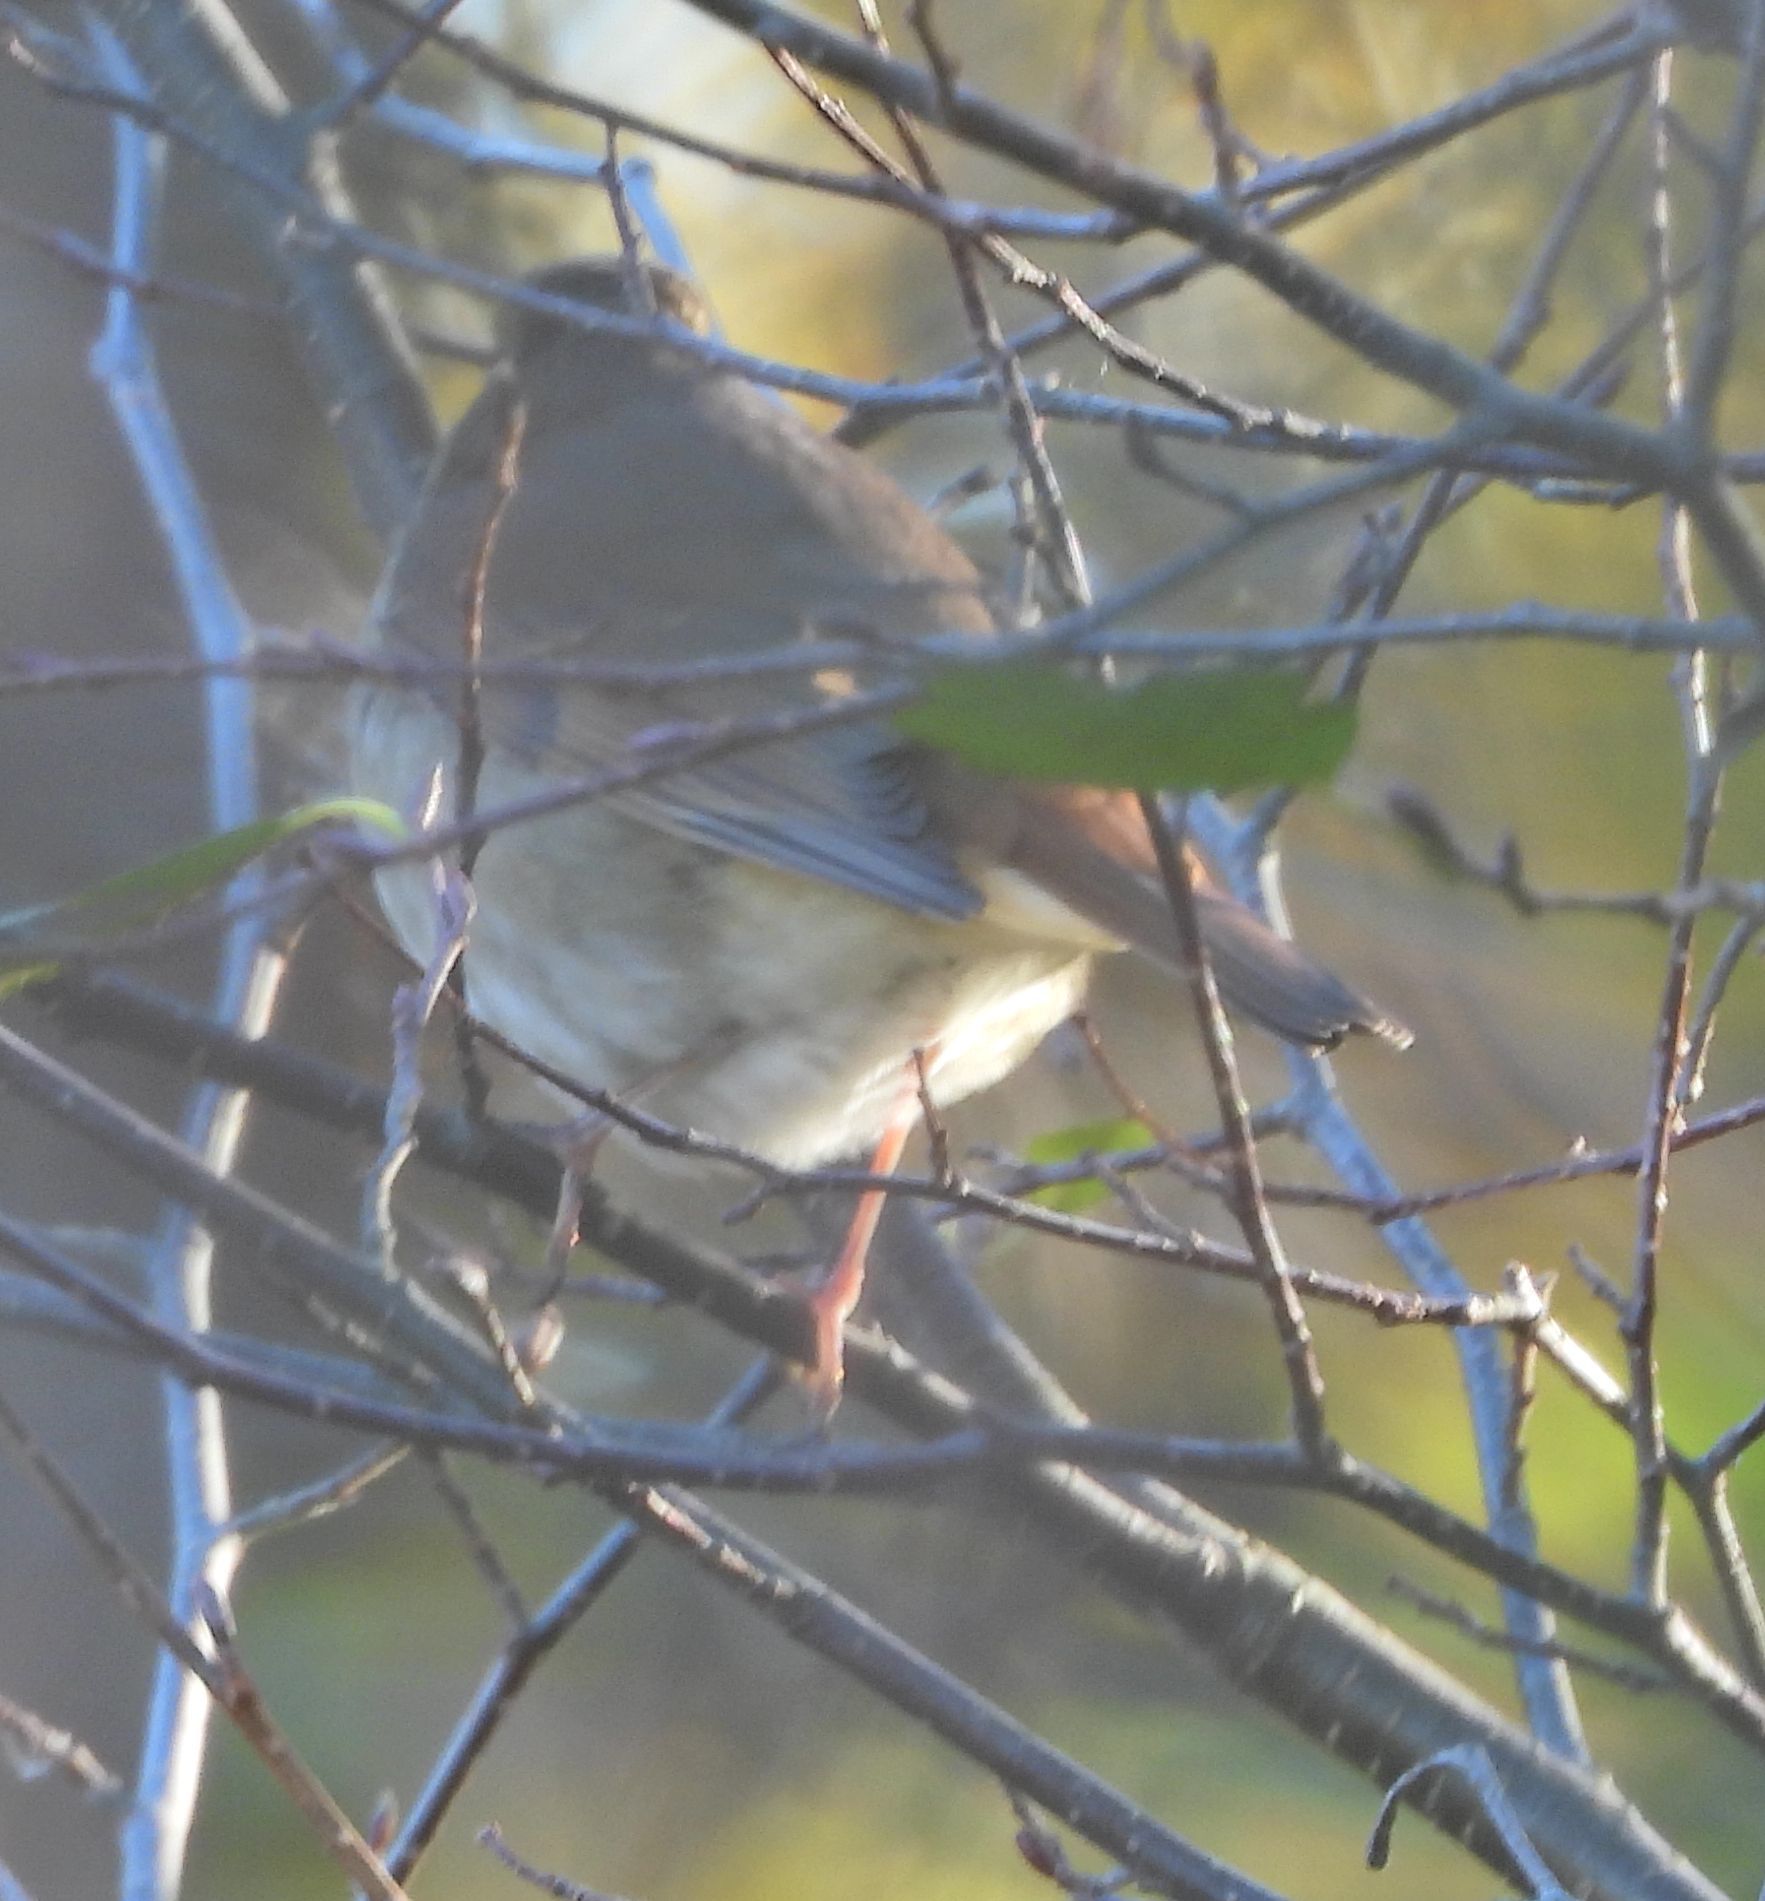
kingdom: Animalia
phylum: Chordata
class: Aves
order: Passeriformes
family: Turdidae
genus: Catharus
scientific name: Catharus guttatus
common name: Hermit thrush
